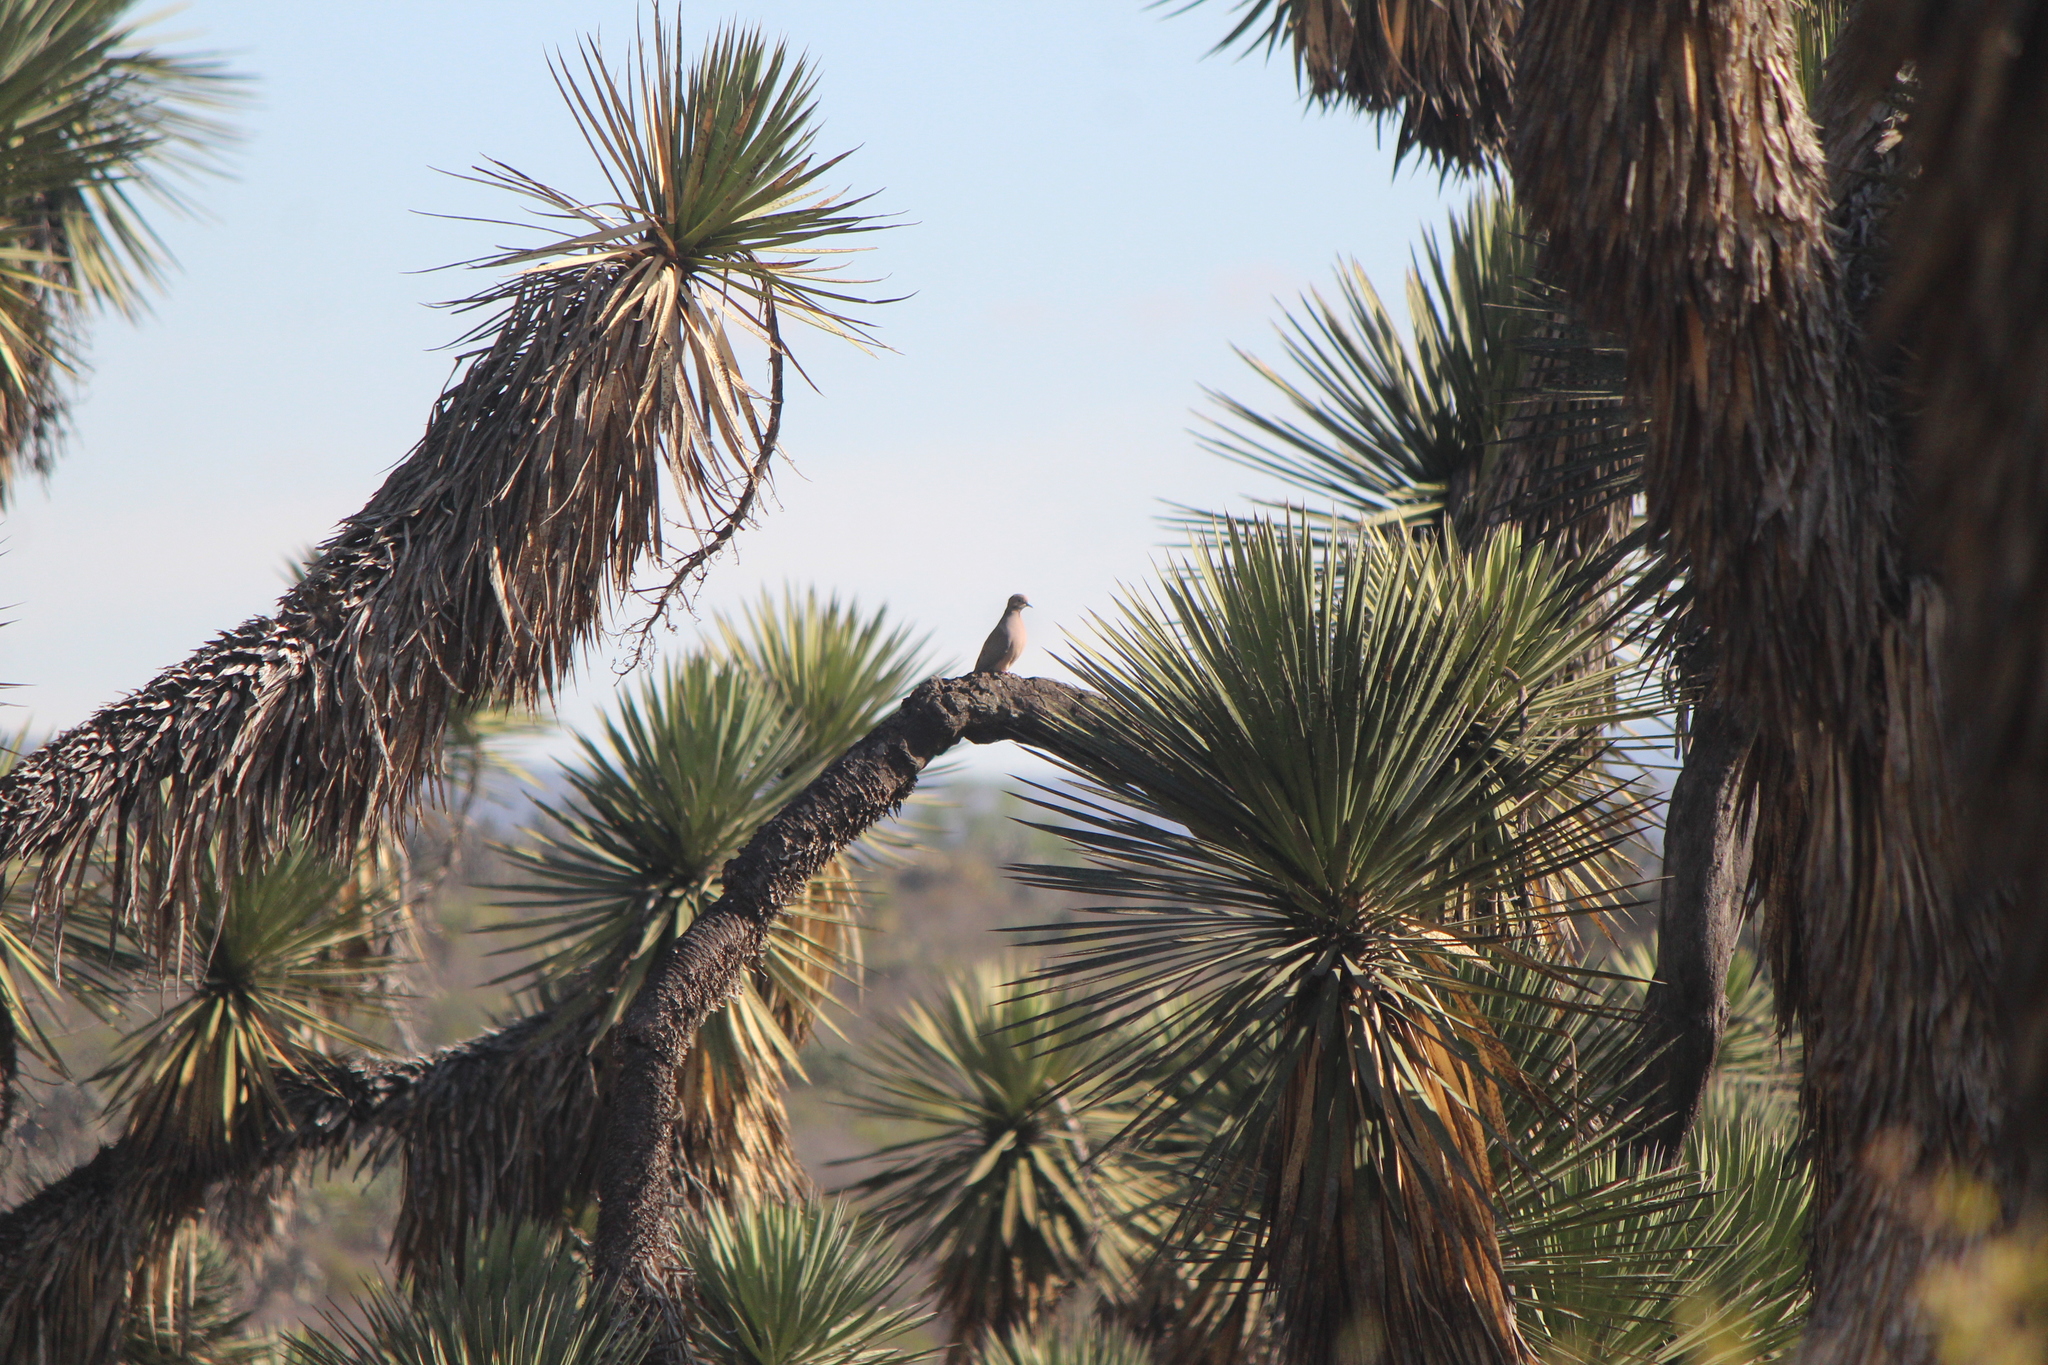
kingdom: Animalia
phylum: Chordata
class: Aves
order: Columbiformes
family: Columbidae
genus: Zenaida
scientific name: Zenaida macroura
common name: Mourning dove
